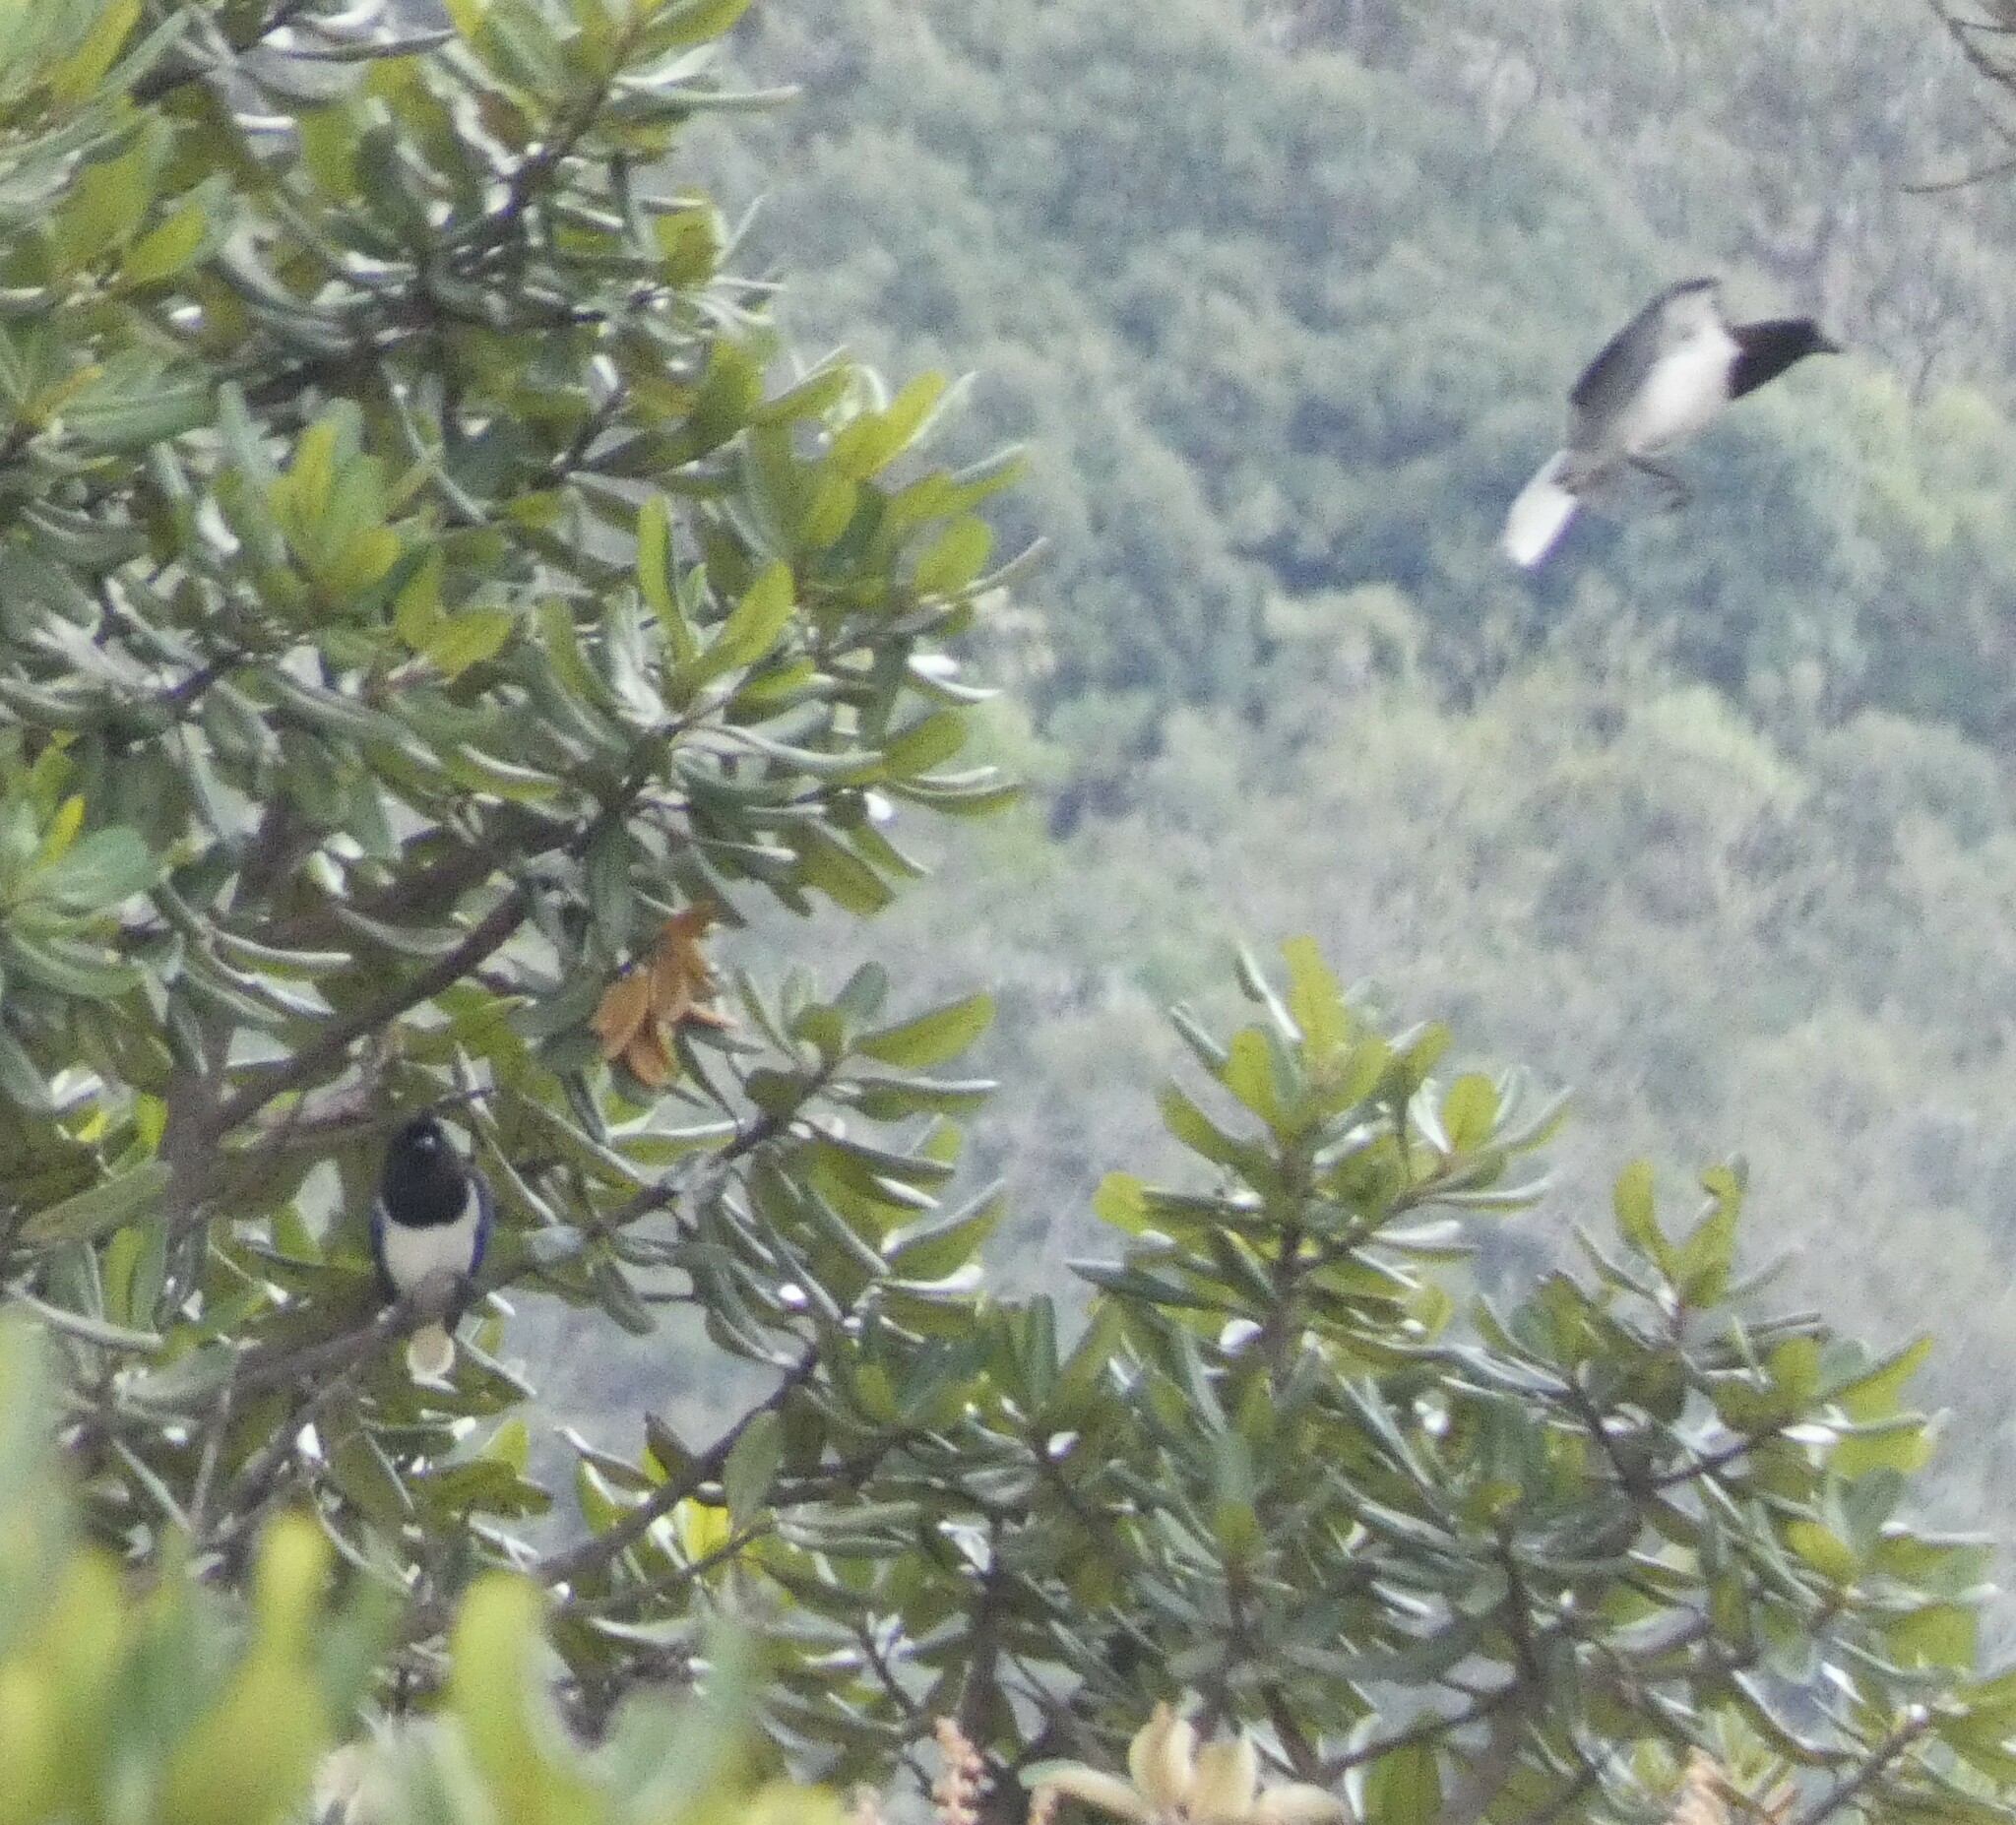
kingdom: Animalia
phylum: Chordata
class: Aves
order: Passeriformes
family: Corvidae
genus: Cyanocorax
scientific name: Cyanocorax cristatellus
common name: Curl-crested jay
